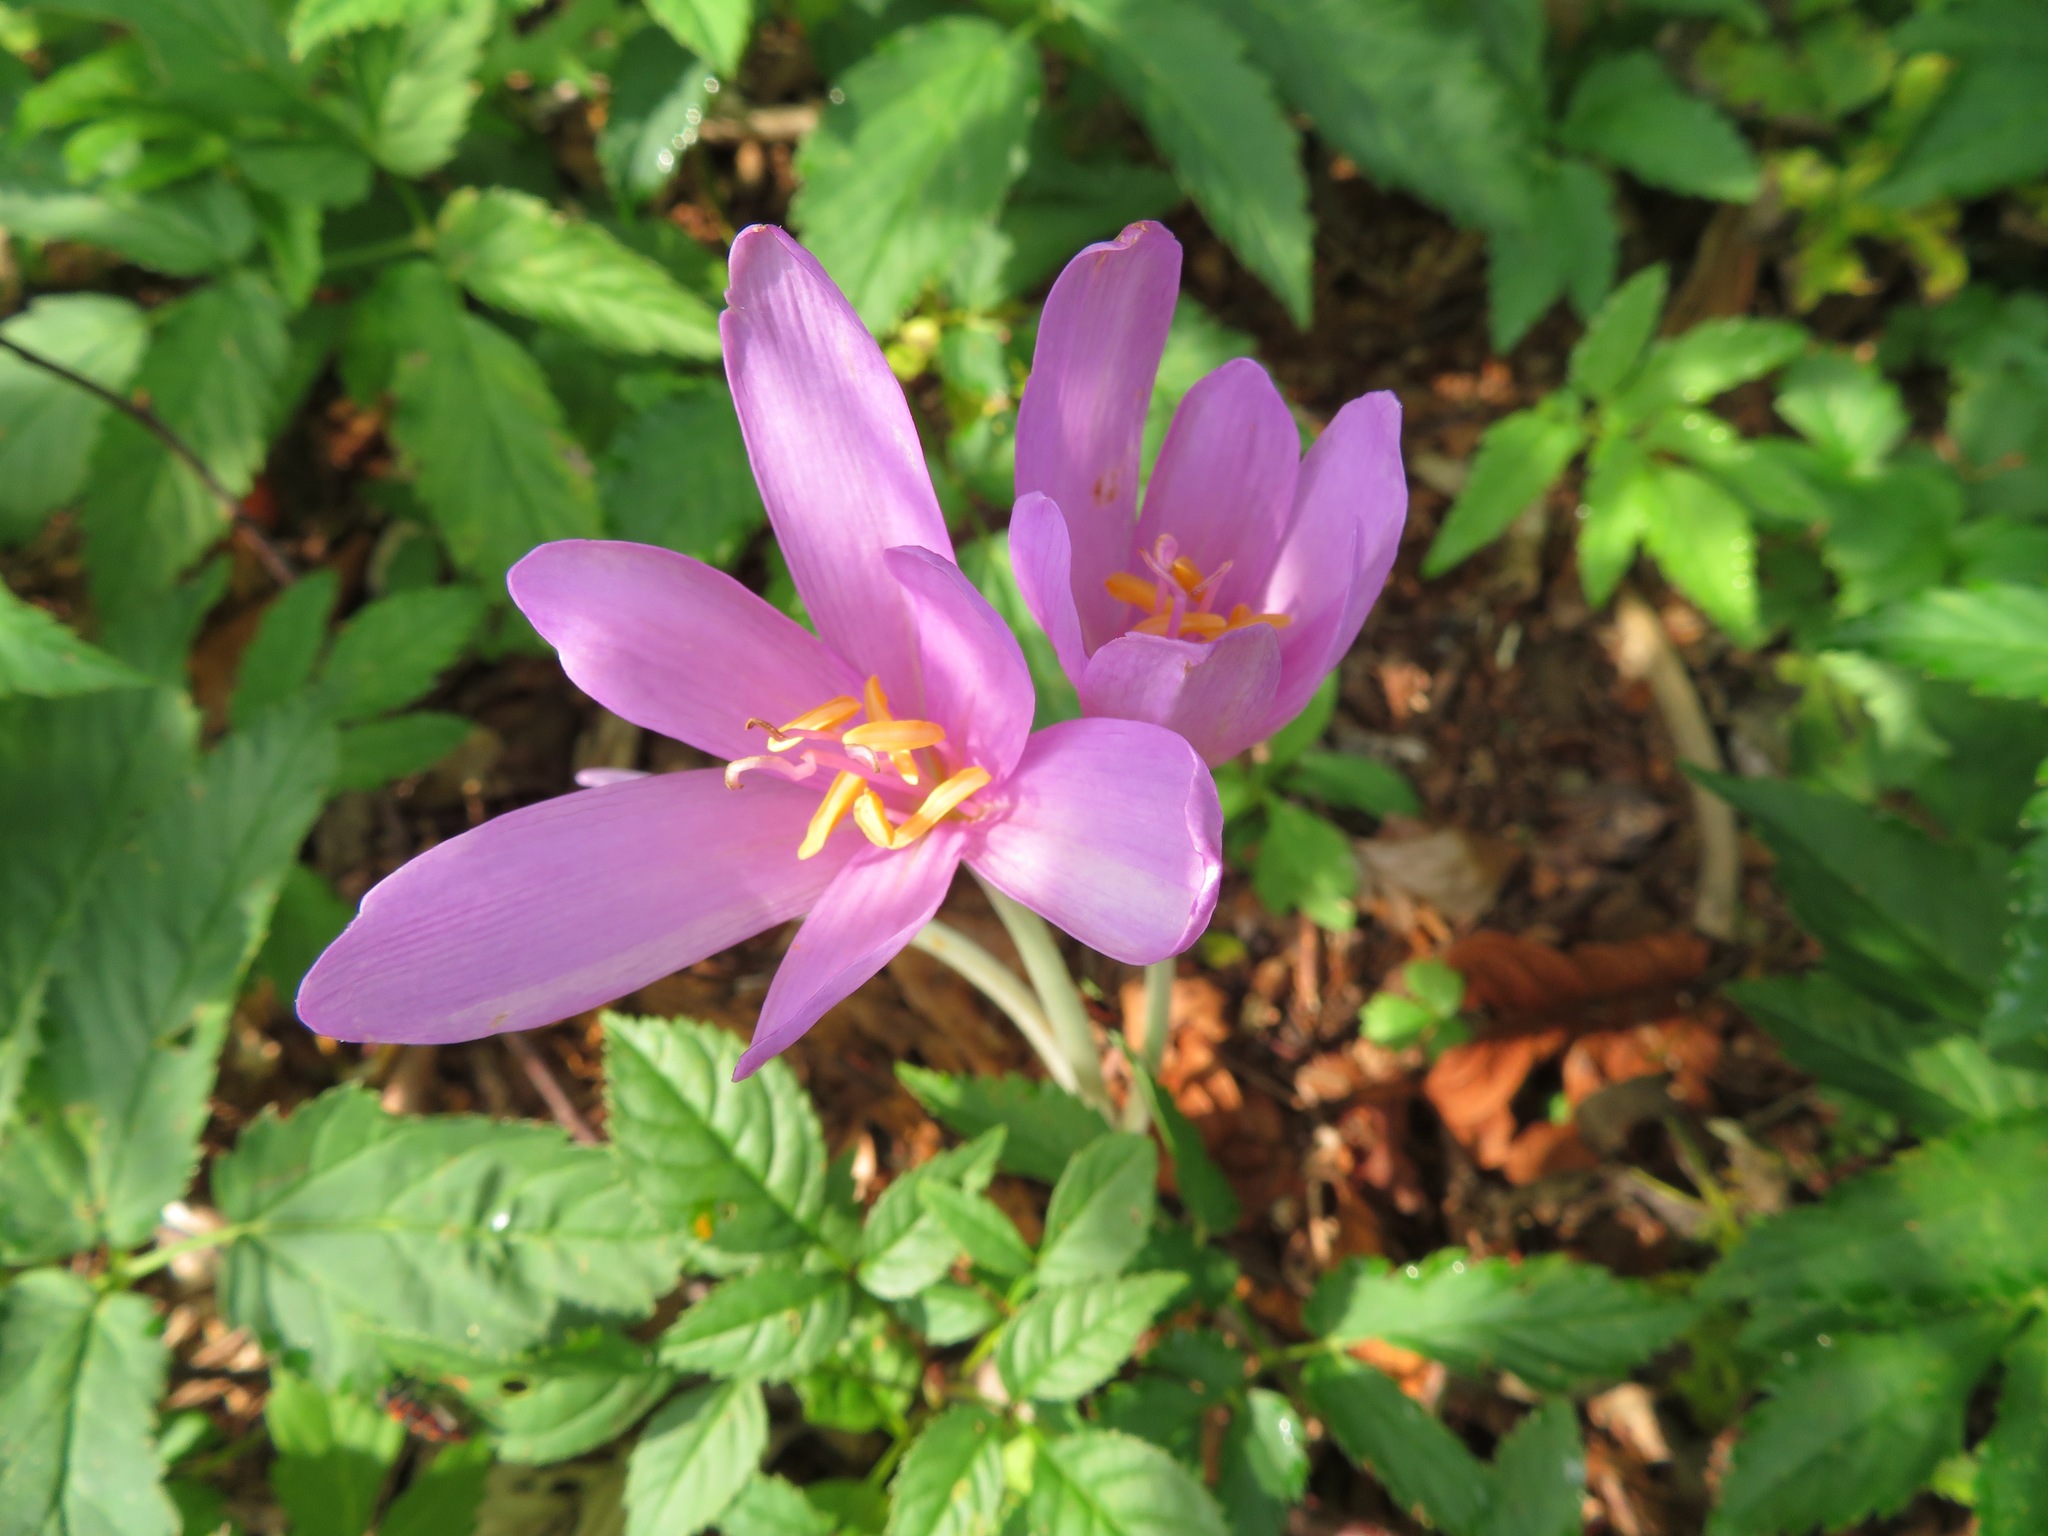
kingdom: Plantae
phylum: Tracheophyta
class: Liliopsida
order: Liliales
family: Colchicaceae
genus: Colchicum
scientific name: Colchicum autumnale
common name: Autumn crocus
